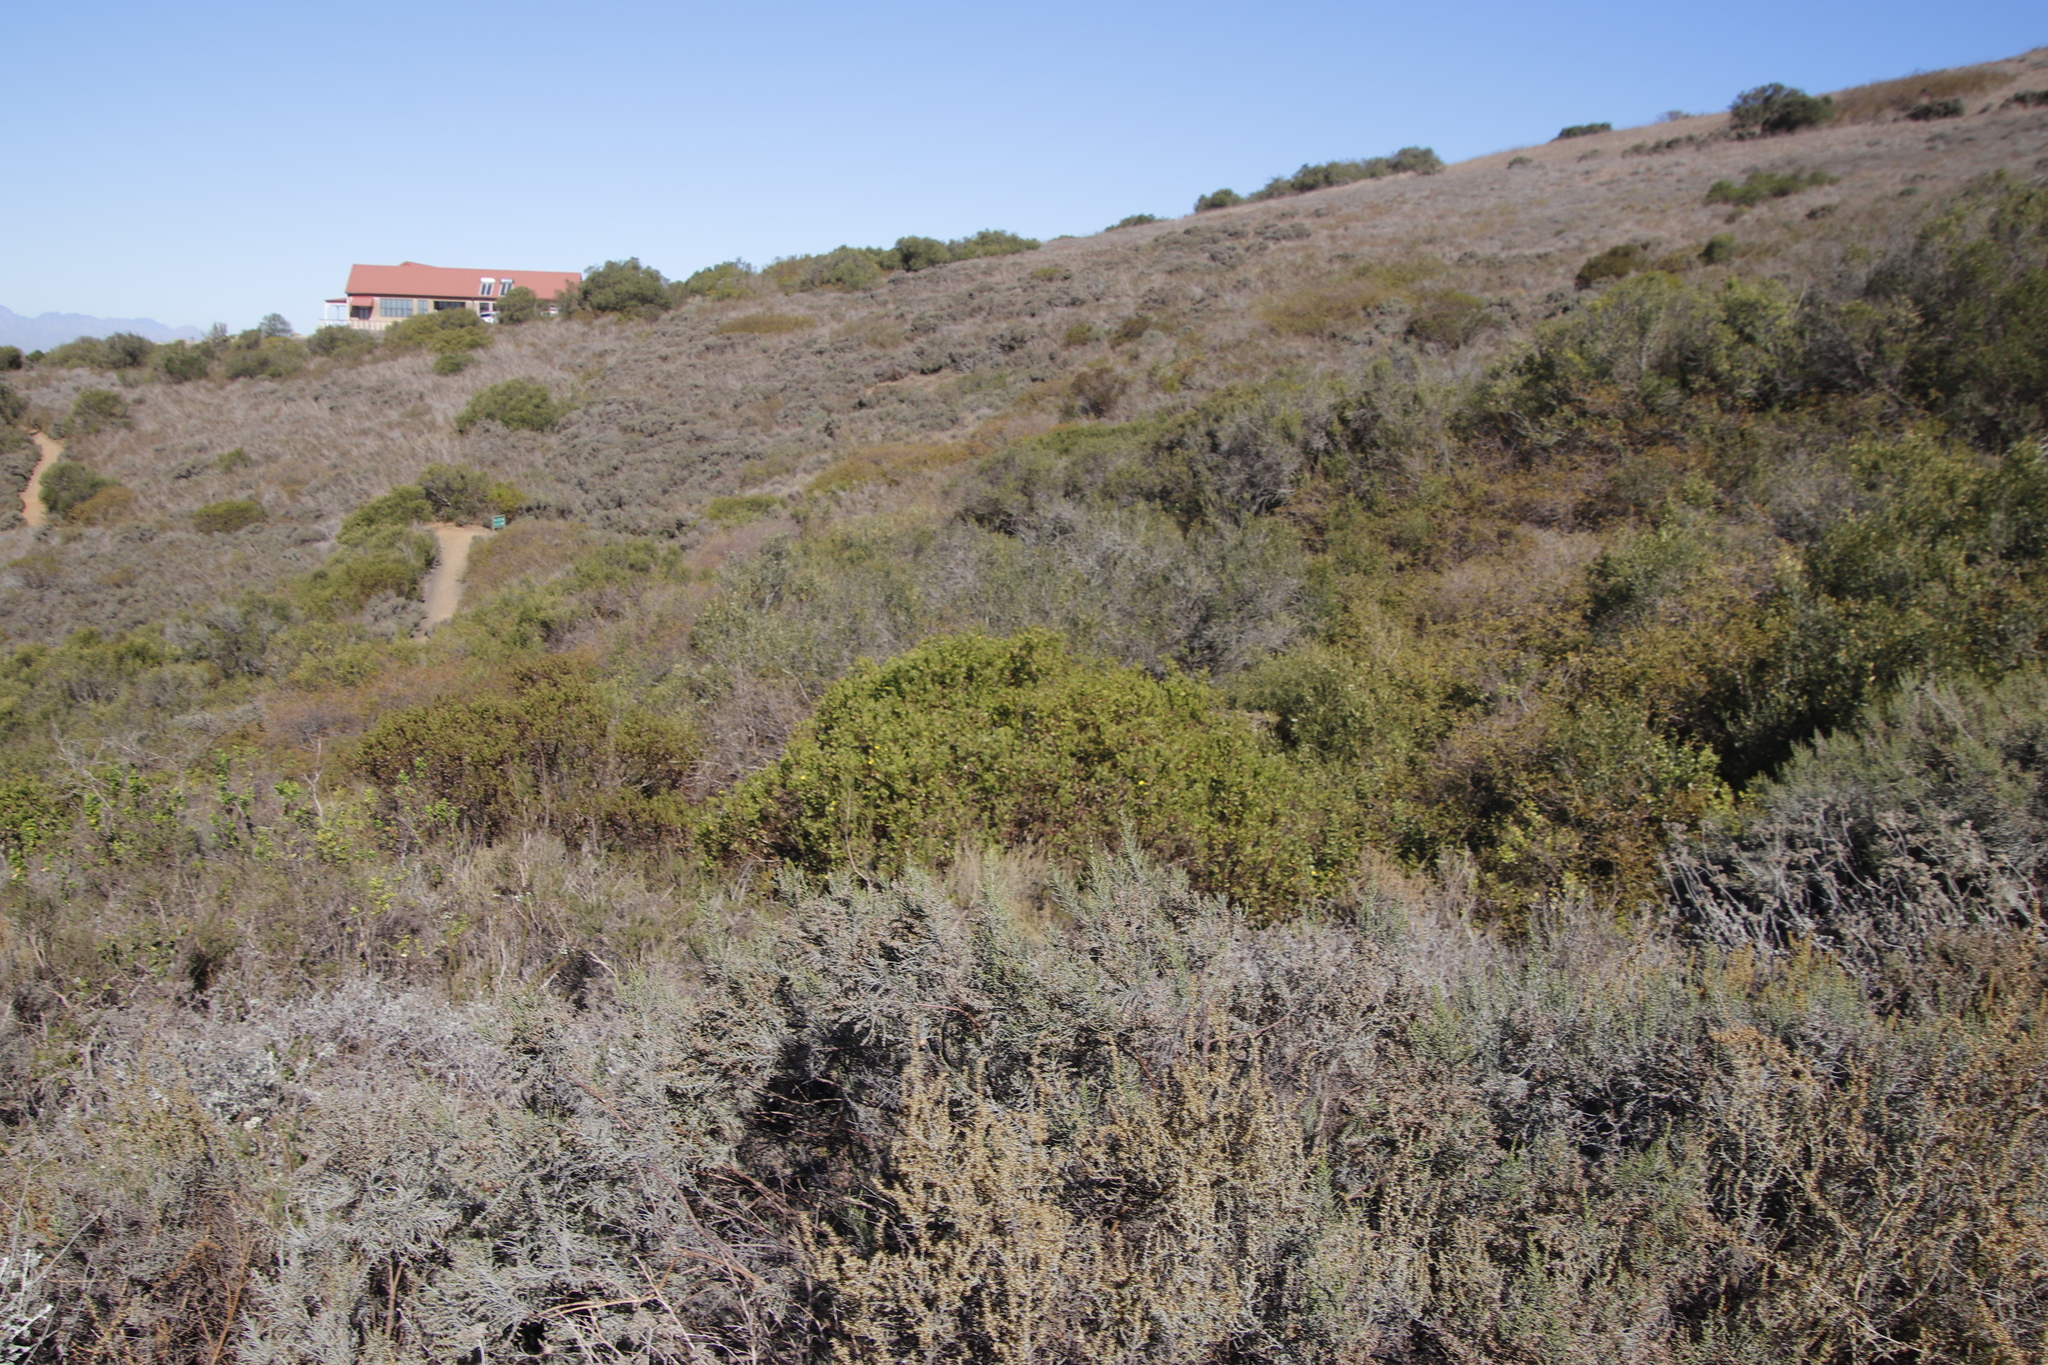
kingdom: Plantae
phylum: Tracheophyta
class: Magnoliopsida
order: Asterales
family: Asteraceae
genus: Osteospermum
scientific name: Osteospermum moniliferum
